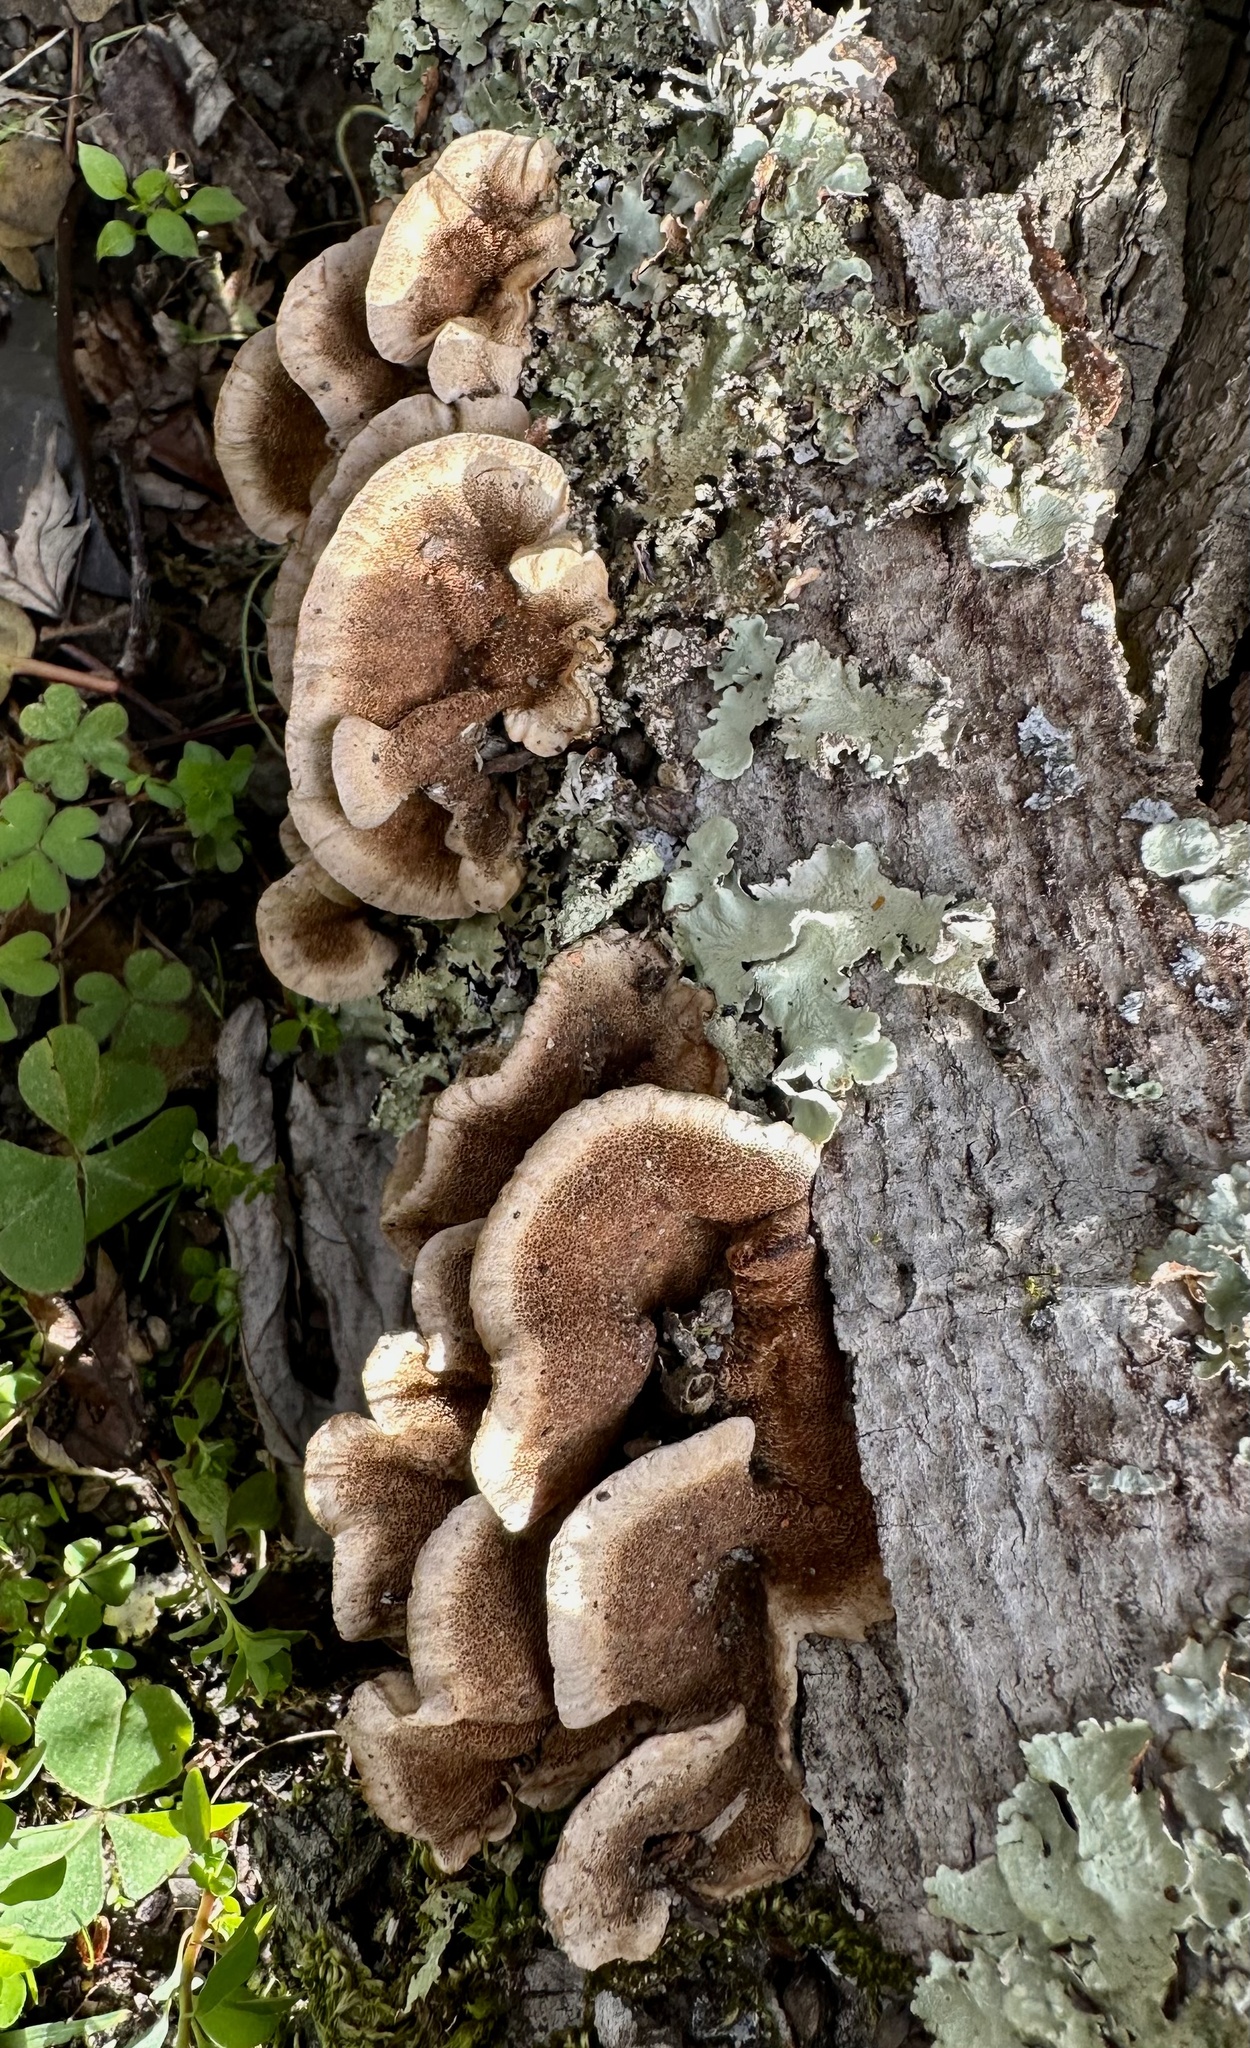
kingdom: Fungi
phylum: Basidiomycota
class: Agaricomycetes
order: Polyporales
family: Polyporaceae
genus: Trametes
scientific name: Trametes versicolor
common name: Turkeytail
